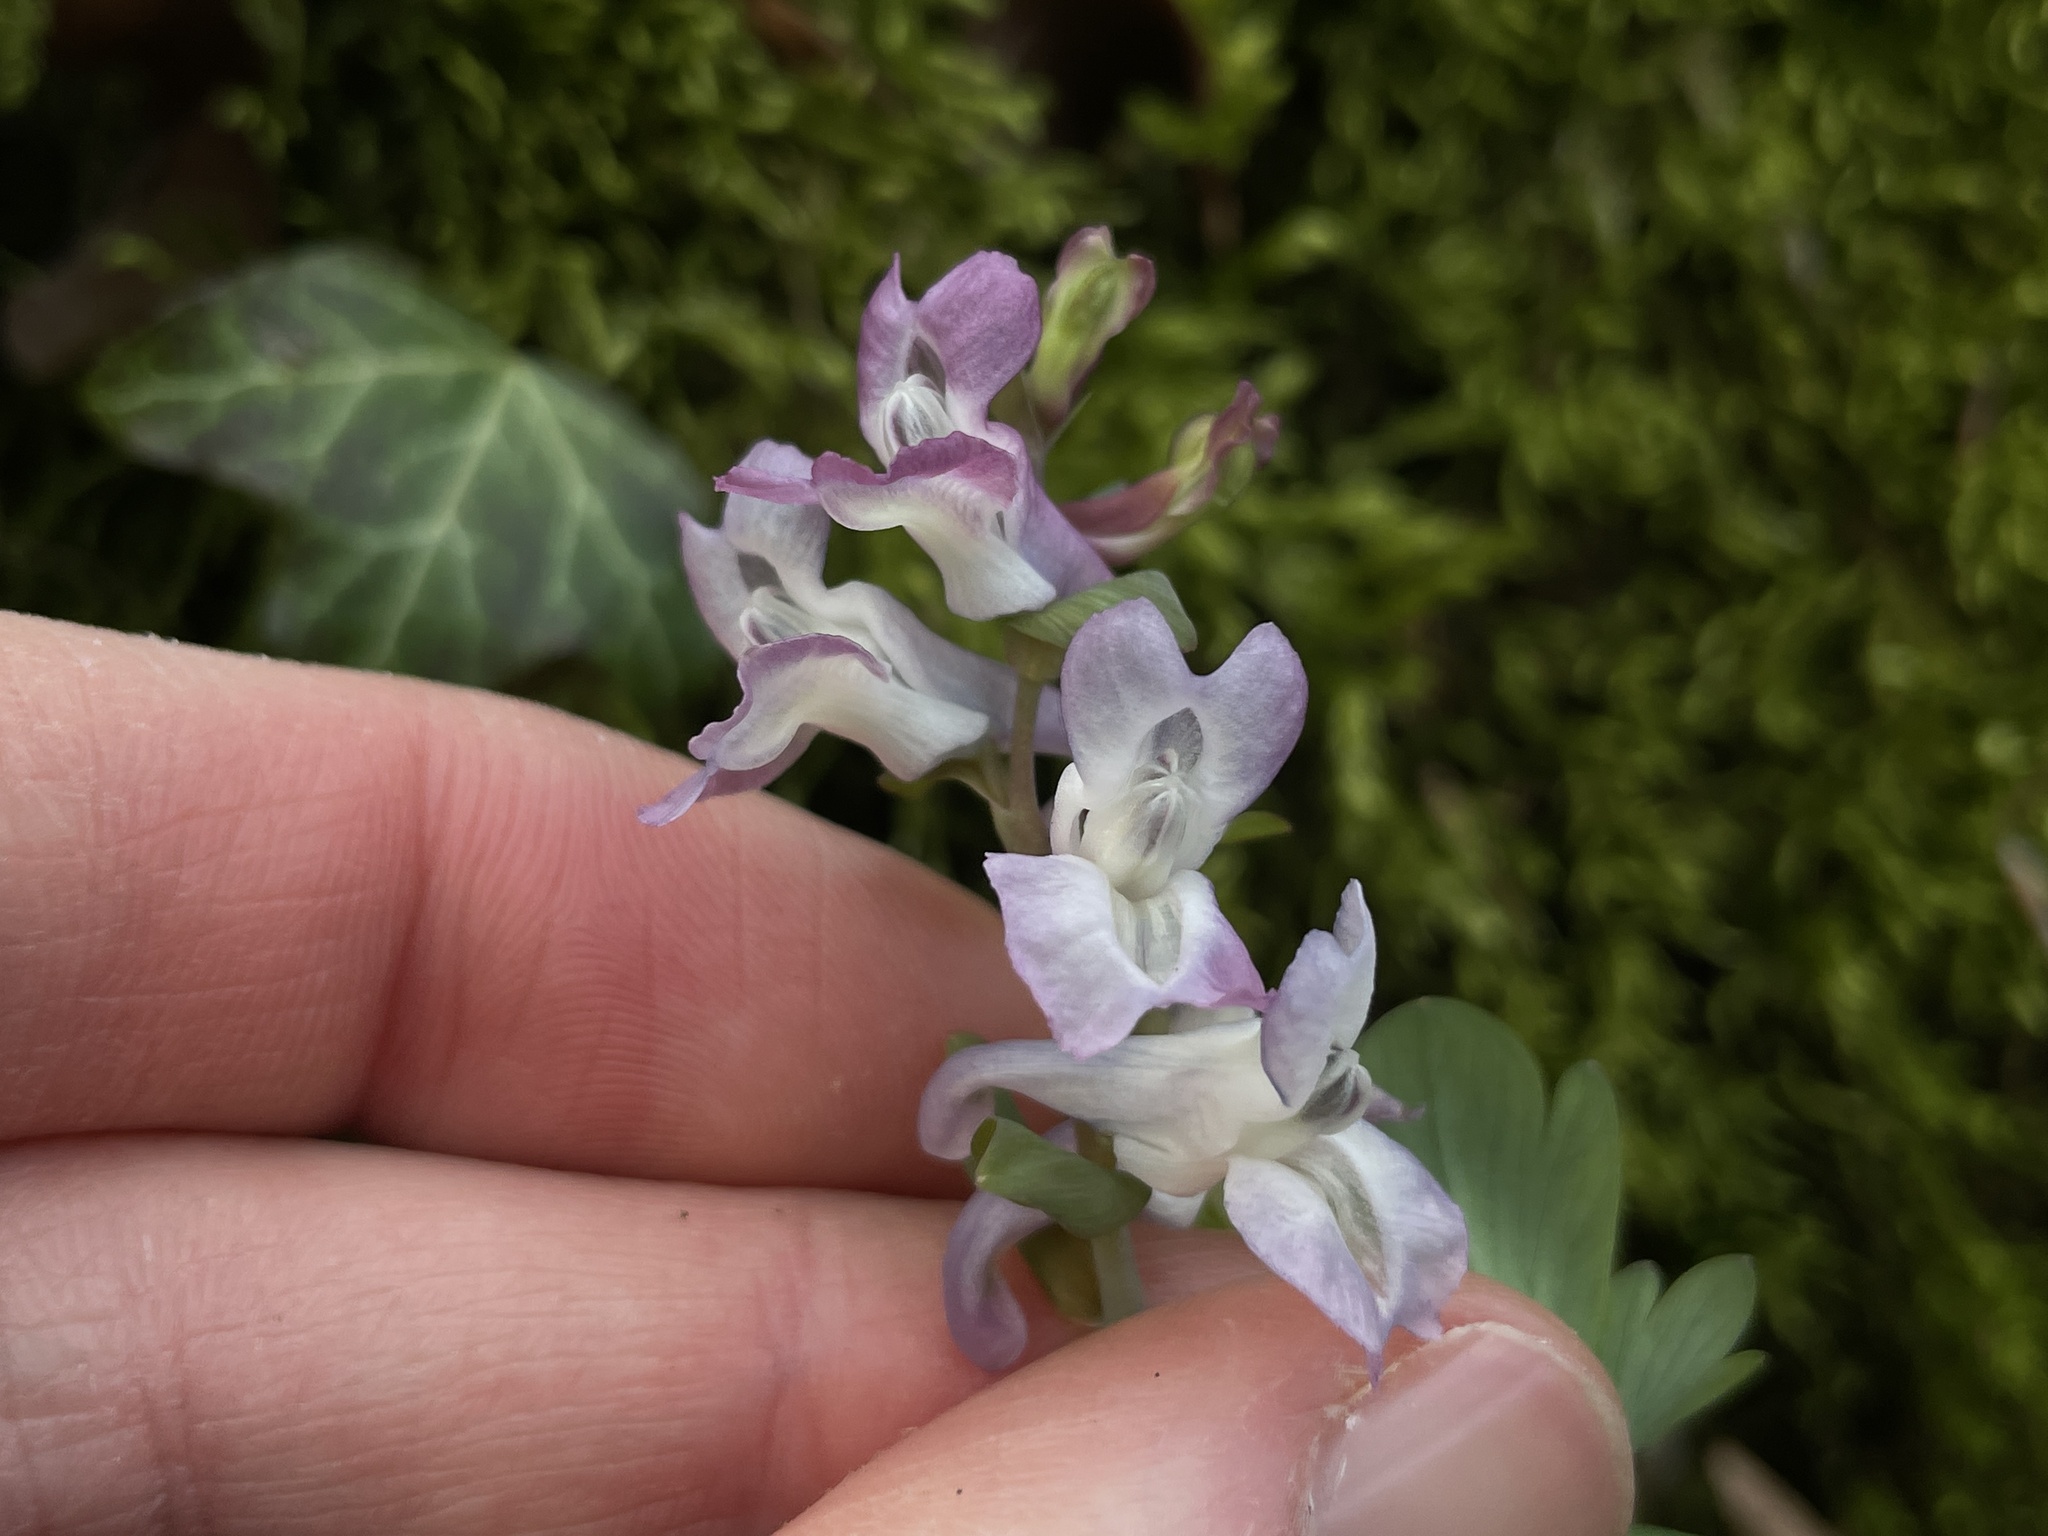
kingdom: Plantae
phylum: Tracheophyta
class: Magnoliopsida
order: Ranunculales
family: Papaveraceae
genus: Corydalis
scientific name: Corydalis cava
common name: Hollowroot
